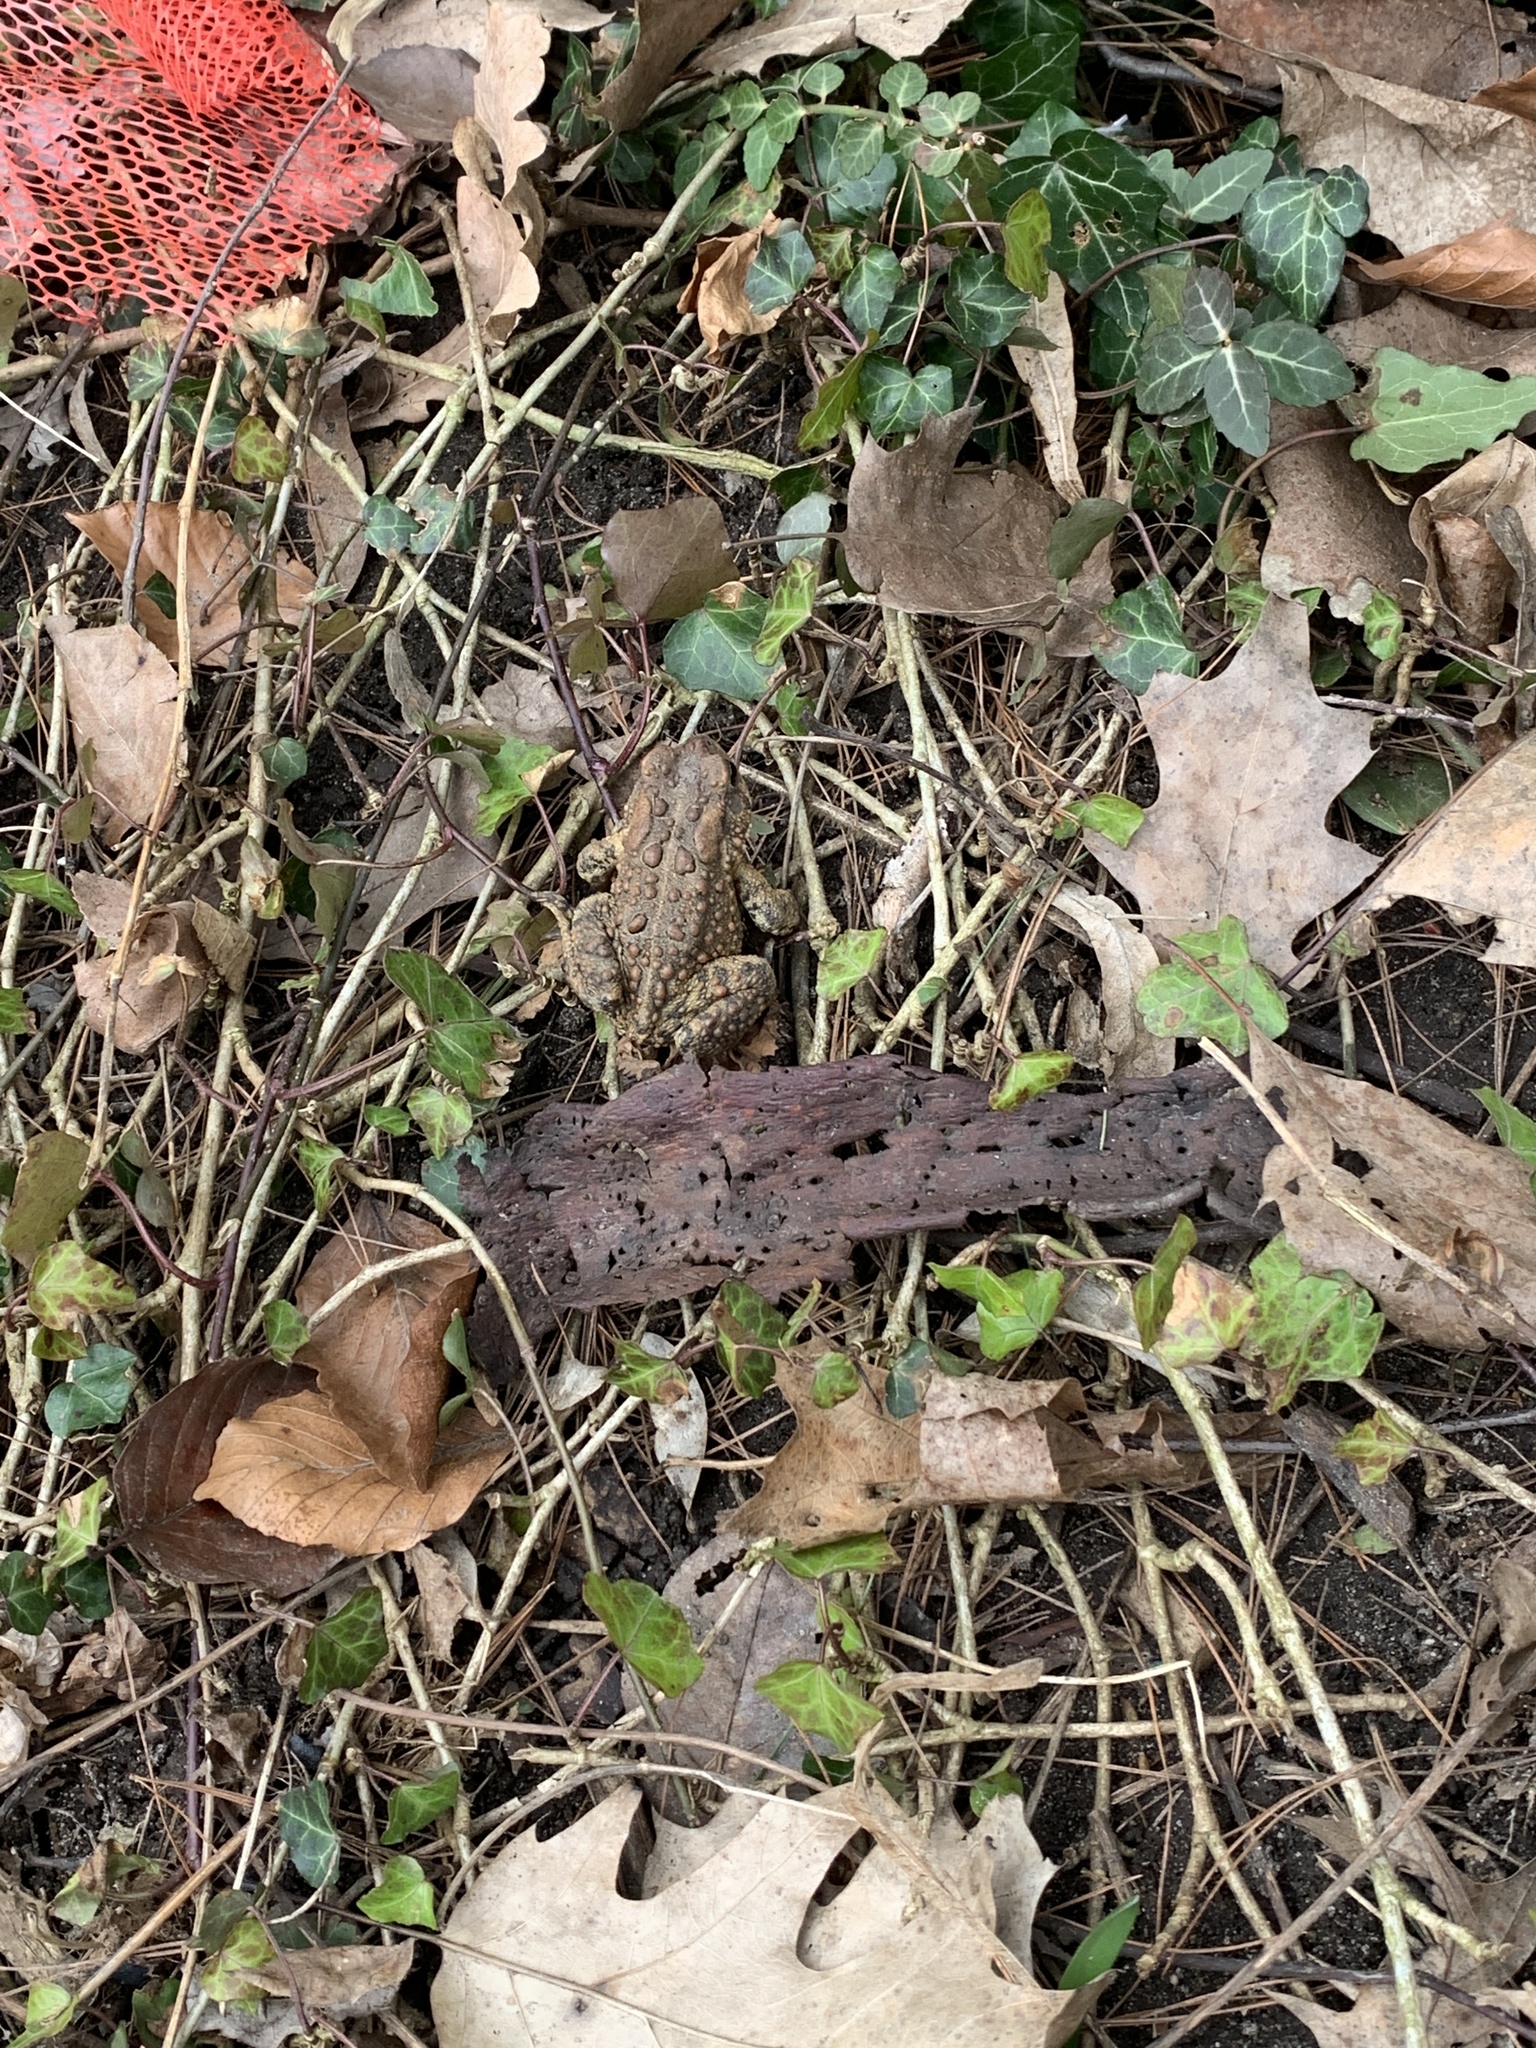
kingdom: Animalia
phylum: Chordata
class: Amphibia
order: Anura
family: Bufonidae
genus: Anaxyrus
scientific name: Anaxyrus americanus
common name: American toad
